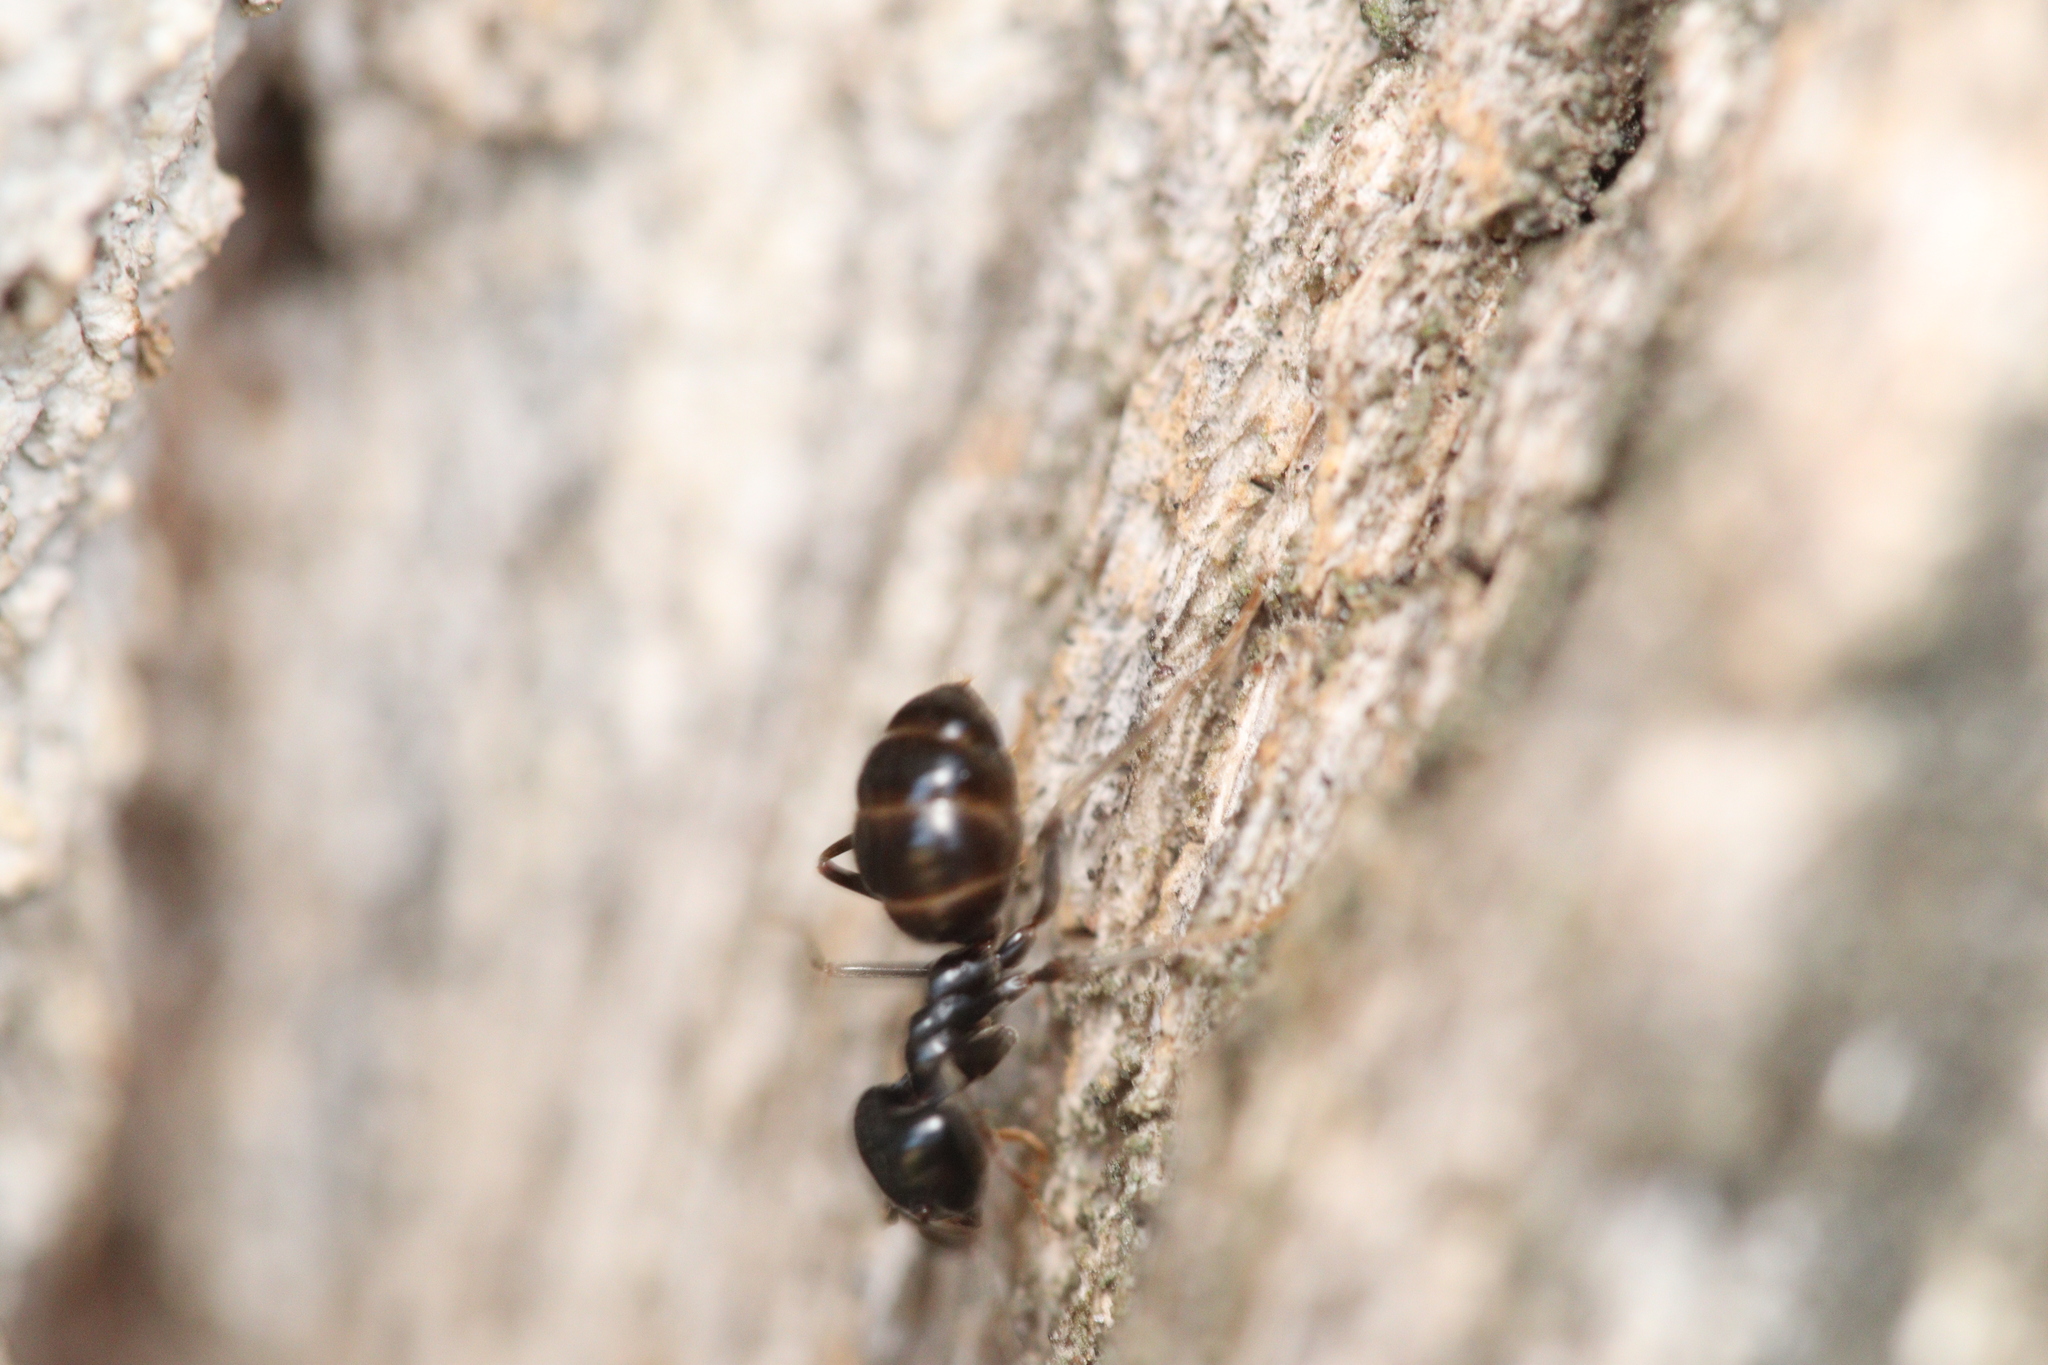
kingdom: Animalia
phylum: Arthropoda
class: Insecta
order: Hymenoptera
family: Formicidae
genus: Lasius
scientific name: Lasius fuliginosus
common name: Jet ant
